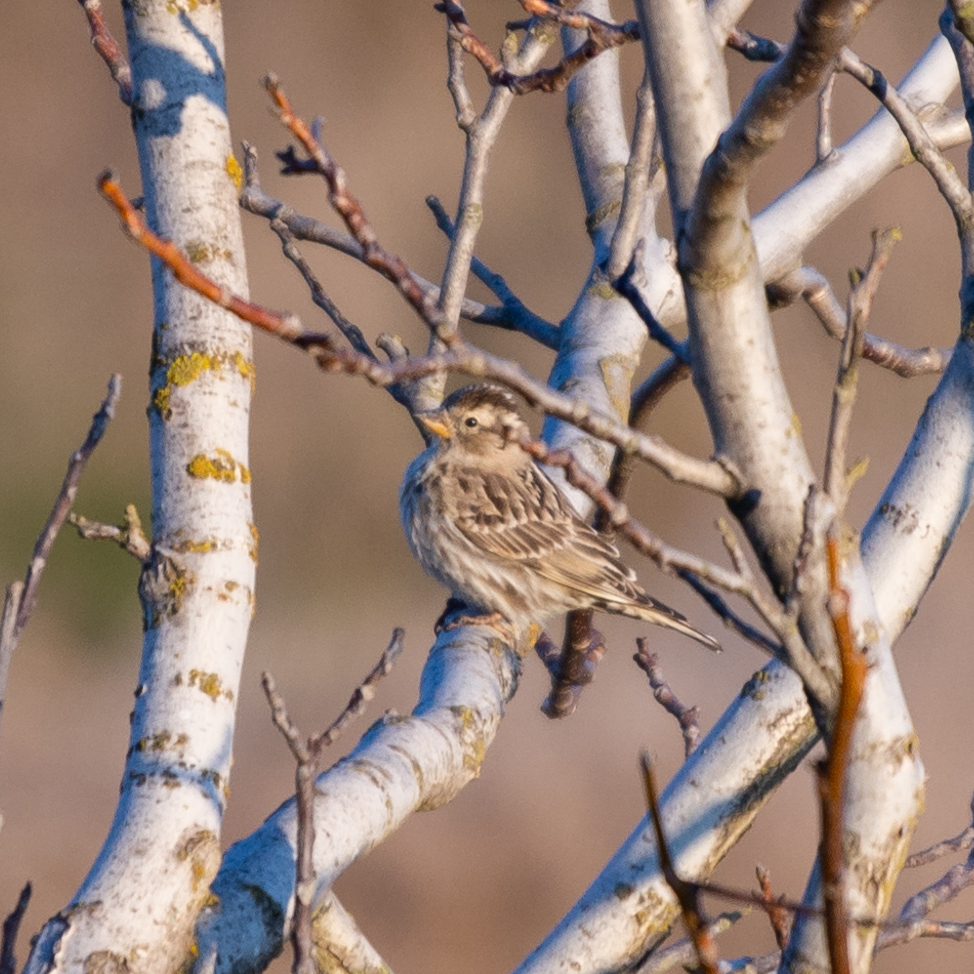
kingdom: Animalia
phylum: Chordata
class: Aves
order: Passeriformes
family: Passeridae
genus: Petronia
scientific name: Petronia petronia
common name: Rock sparrow
